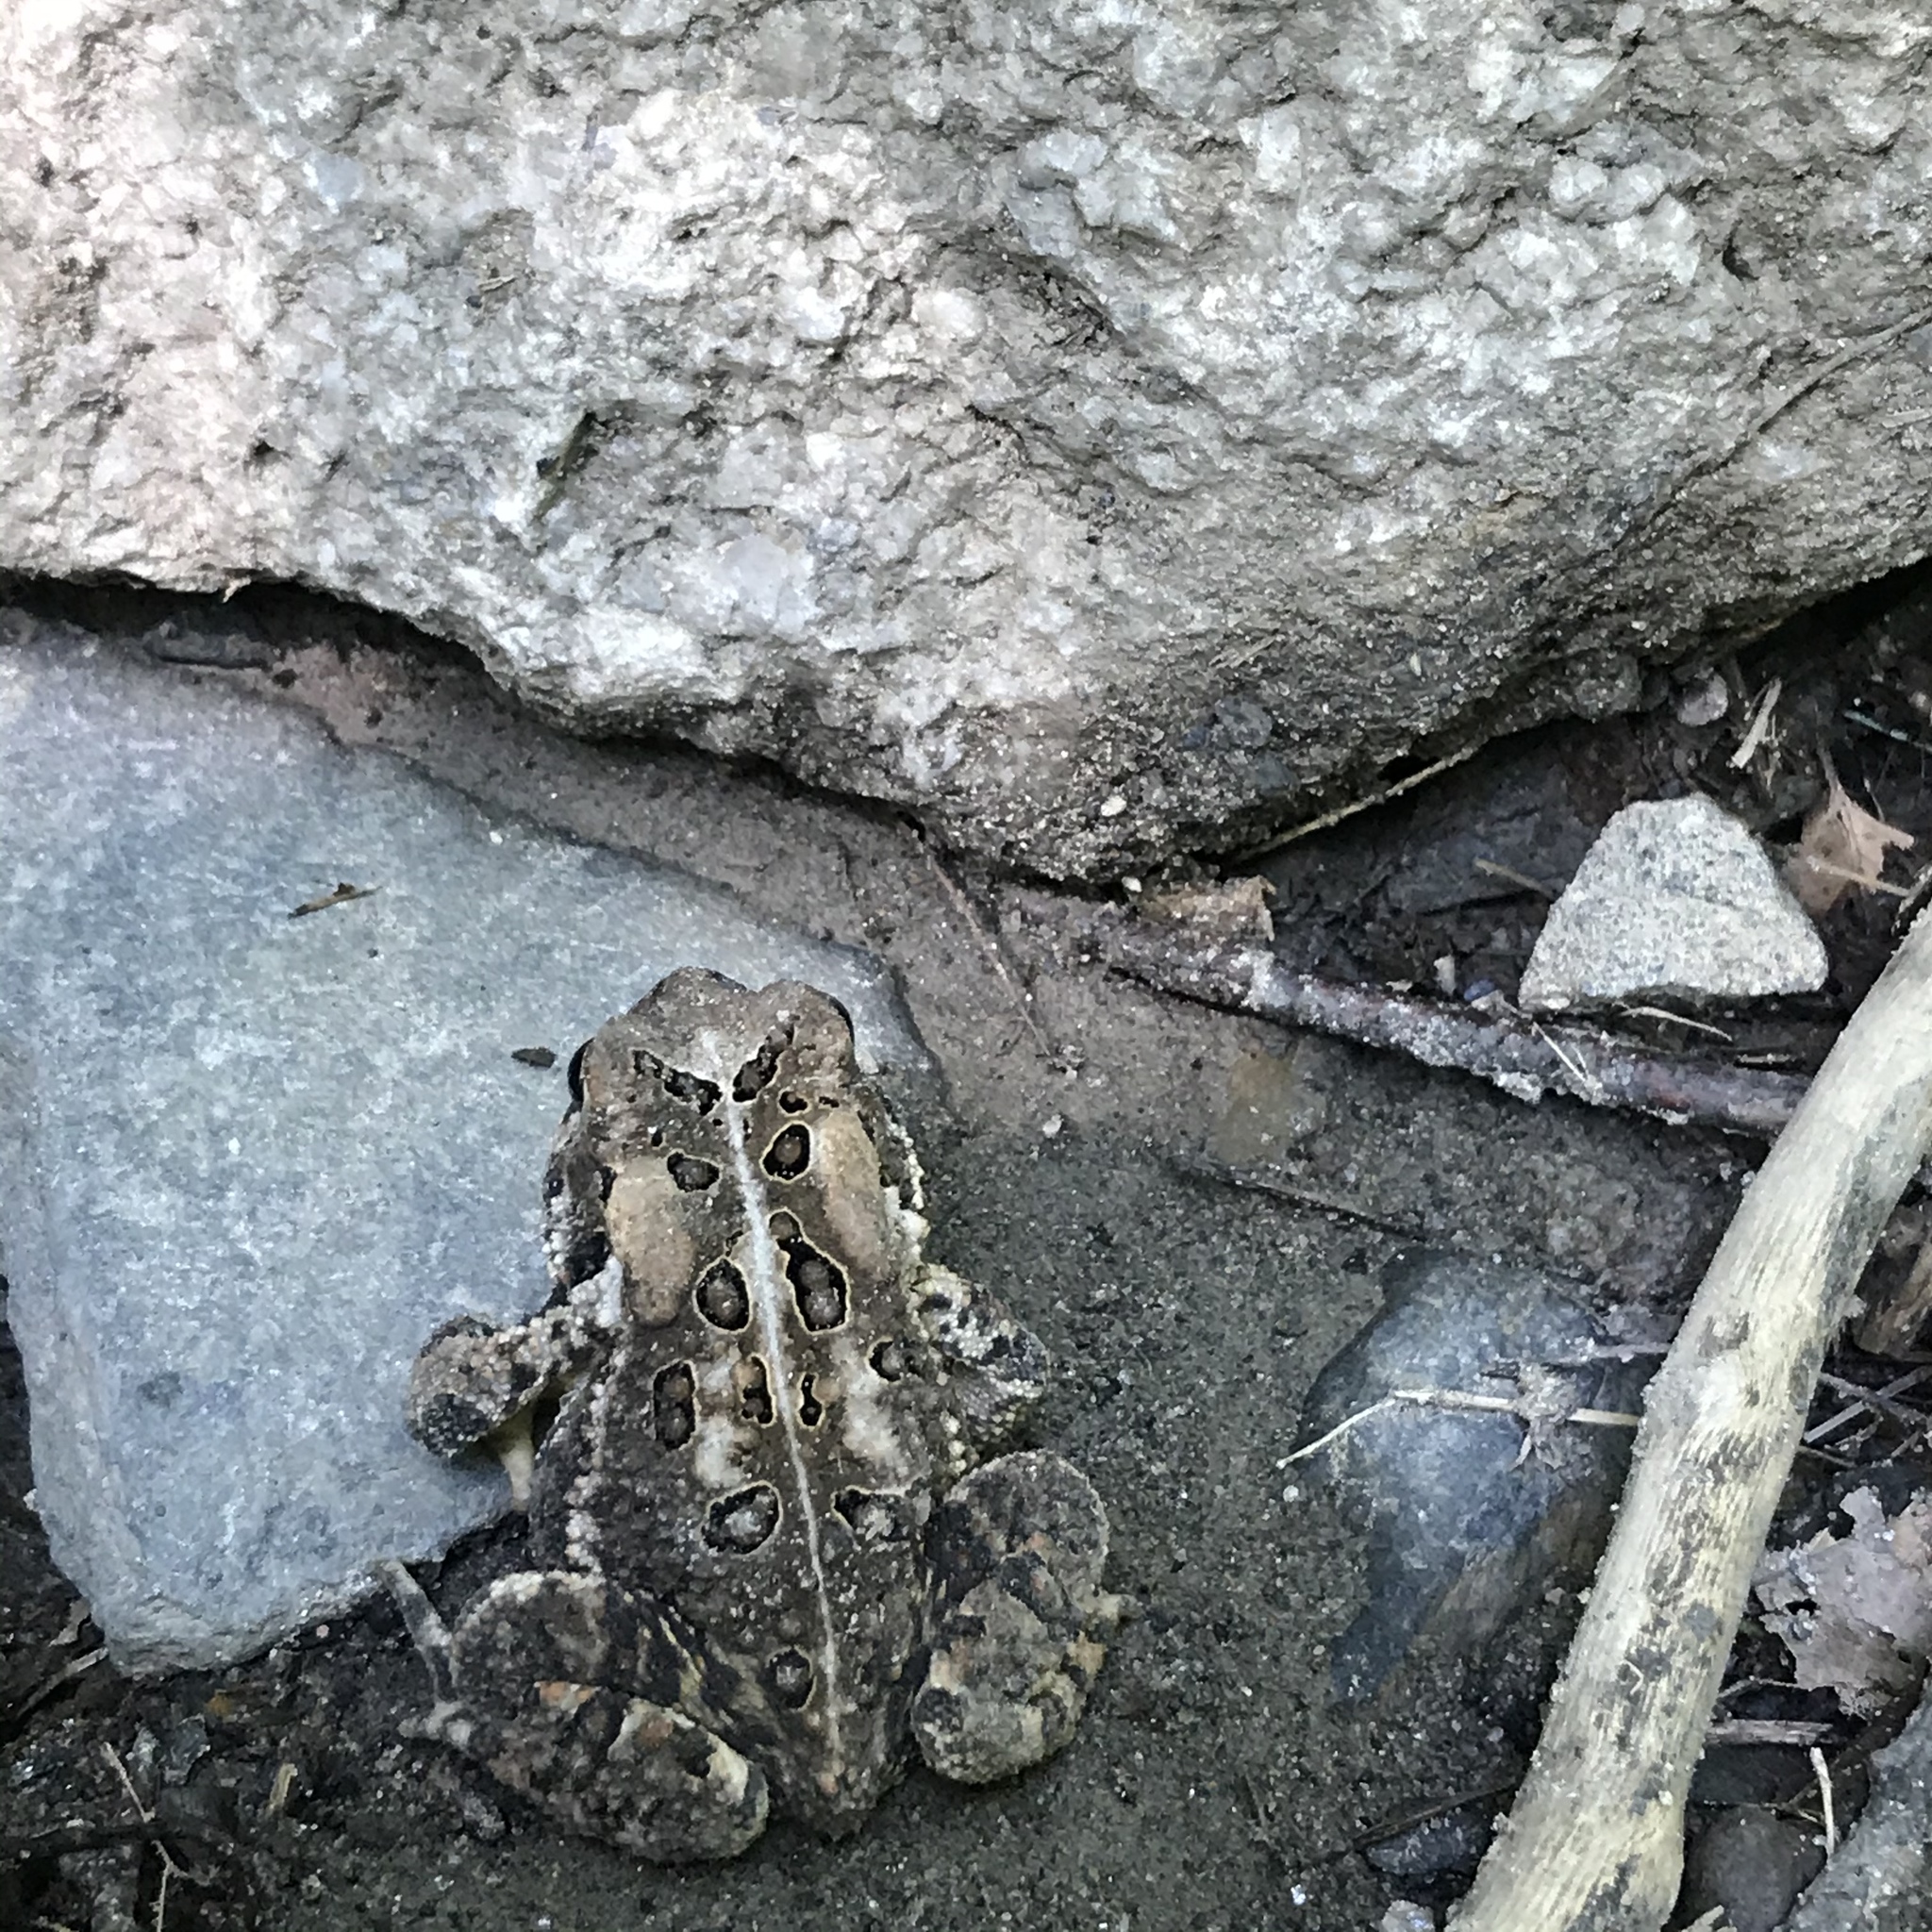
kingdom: Animalia
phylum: Chordata
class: Amphibia
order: Anura
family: Bufonidae
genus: Anaxyrus
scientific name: Anaxyrus americanus
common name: American toad
